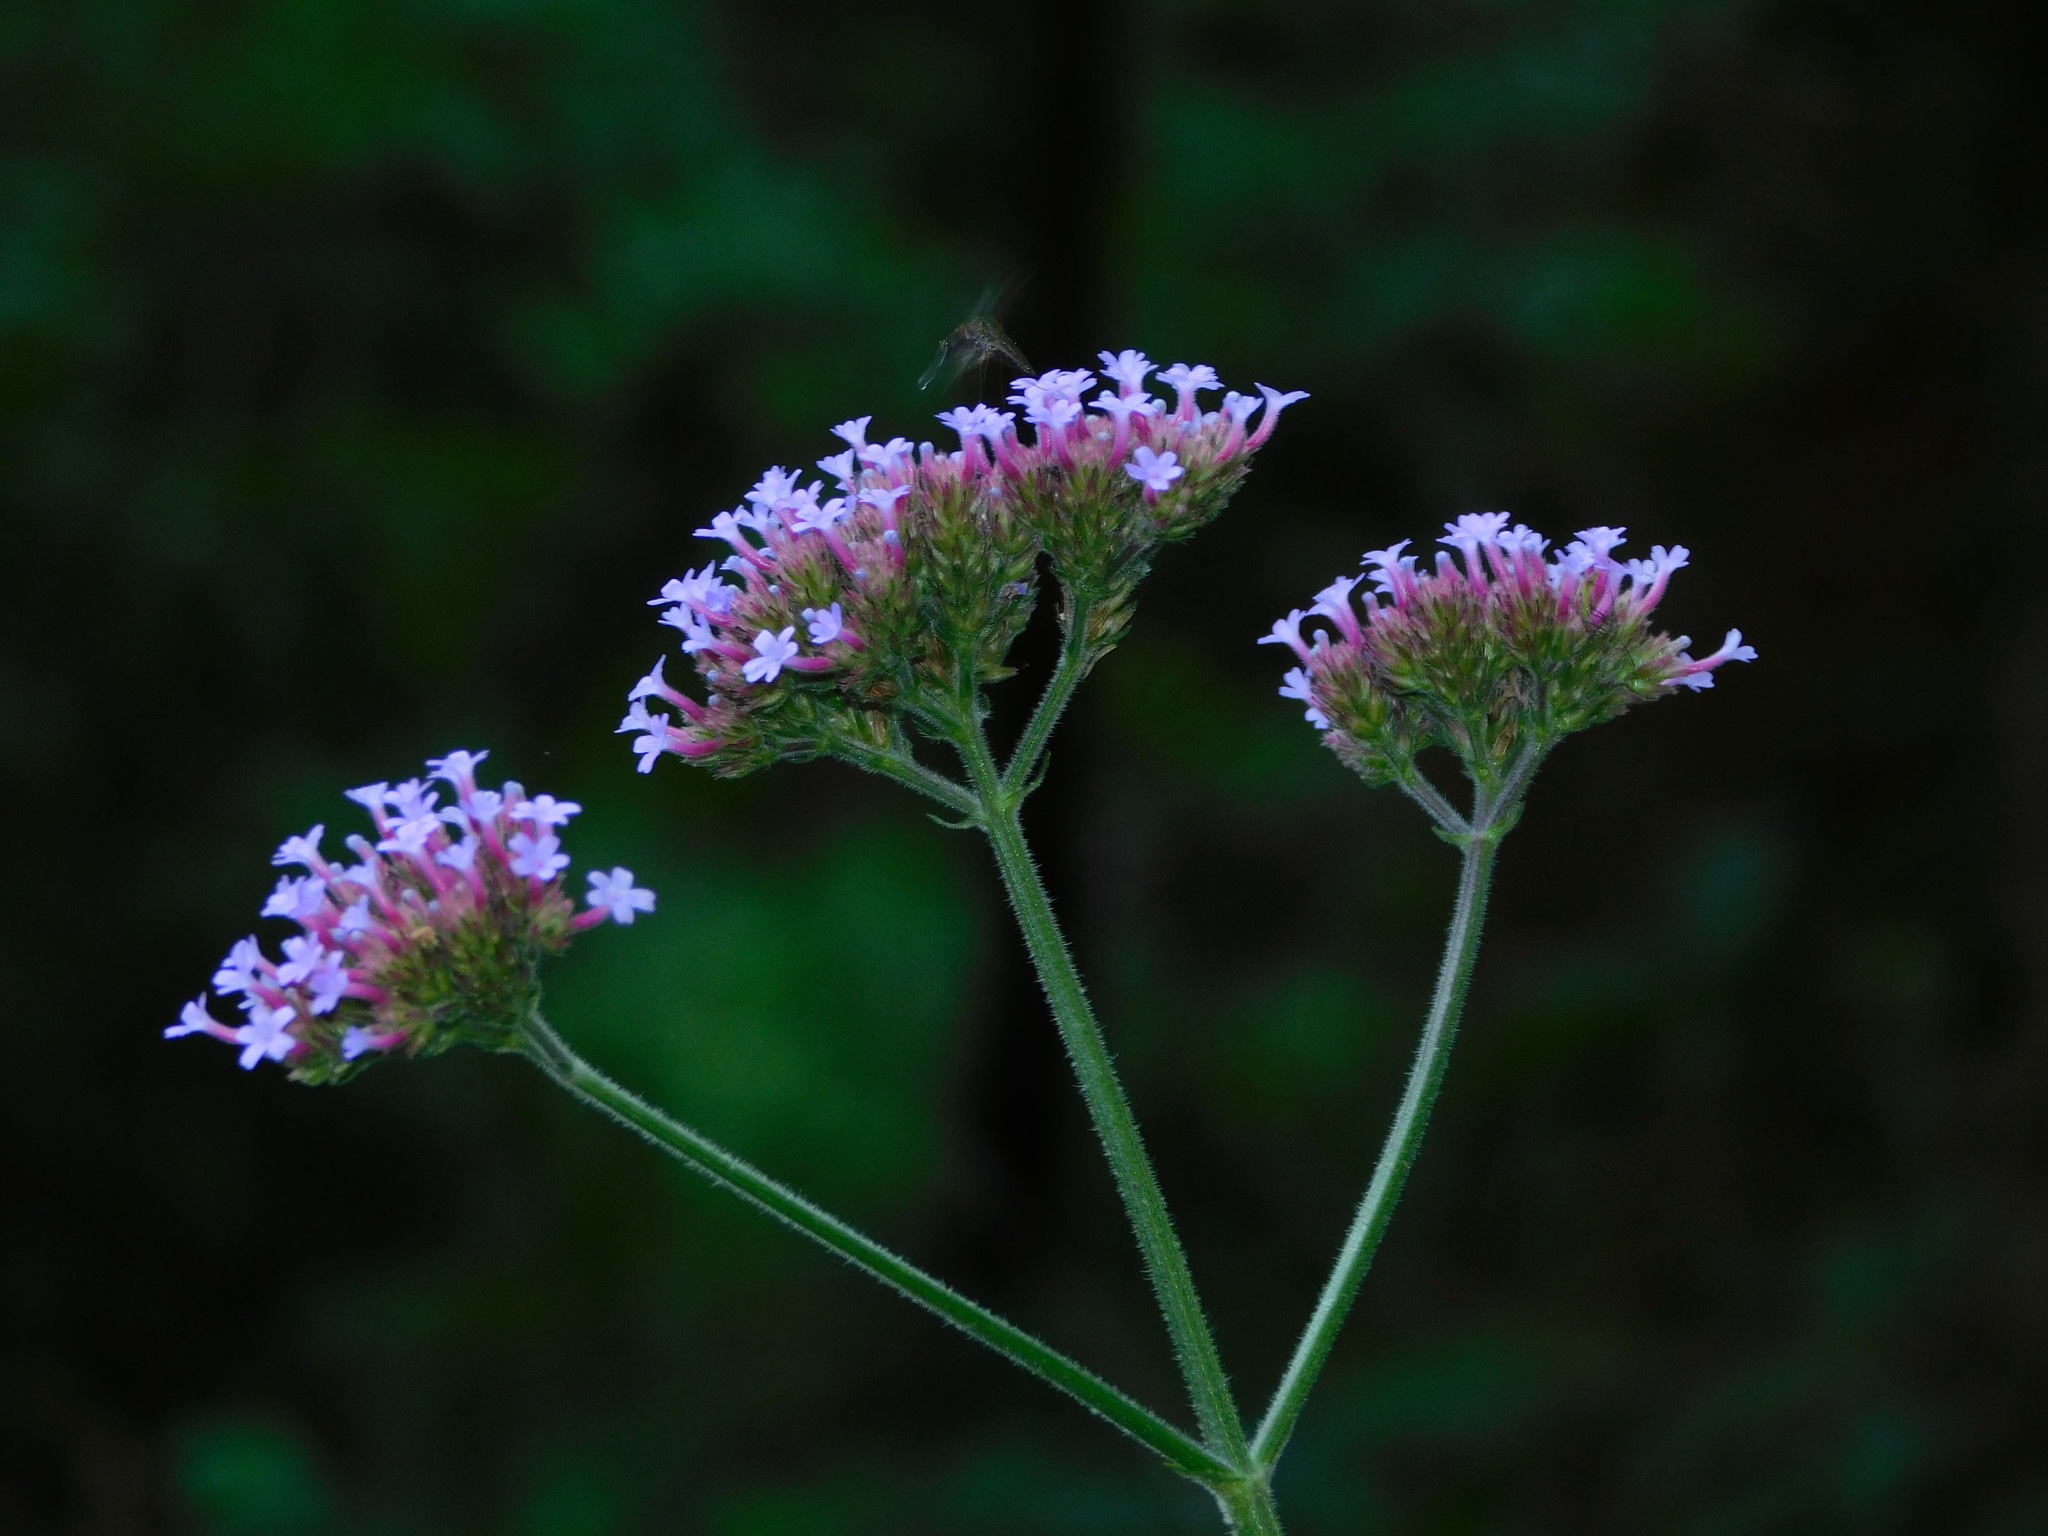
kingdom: Plantae
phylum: Tracheophyta
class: Magnoliopsida
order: Lamiales
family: Verbenaceae
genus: Verbena
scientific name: Verbena bonariensis
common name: Purpletop vervain
